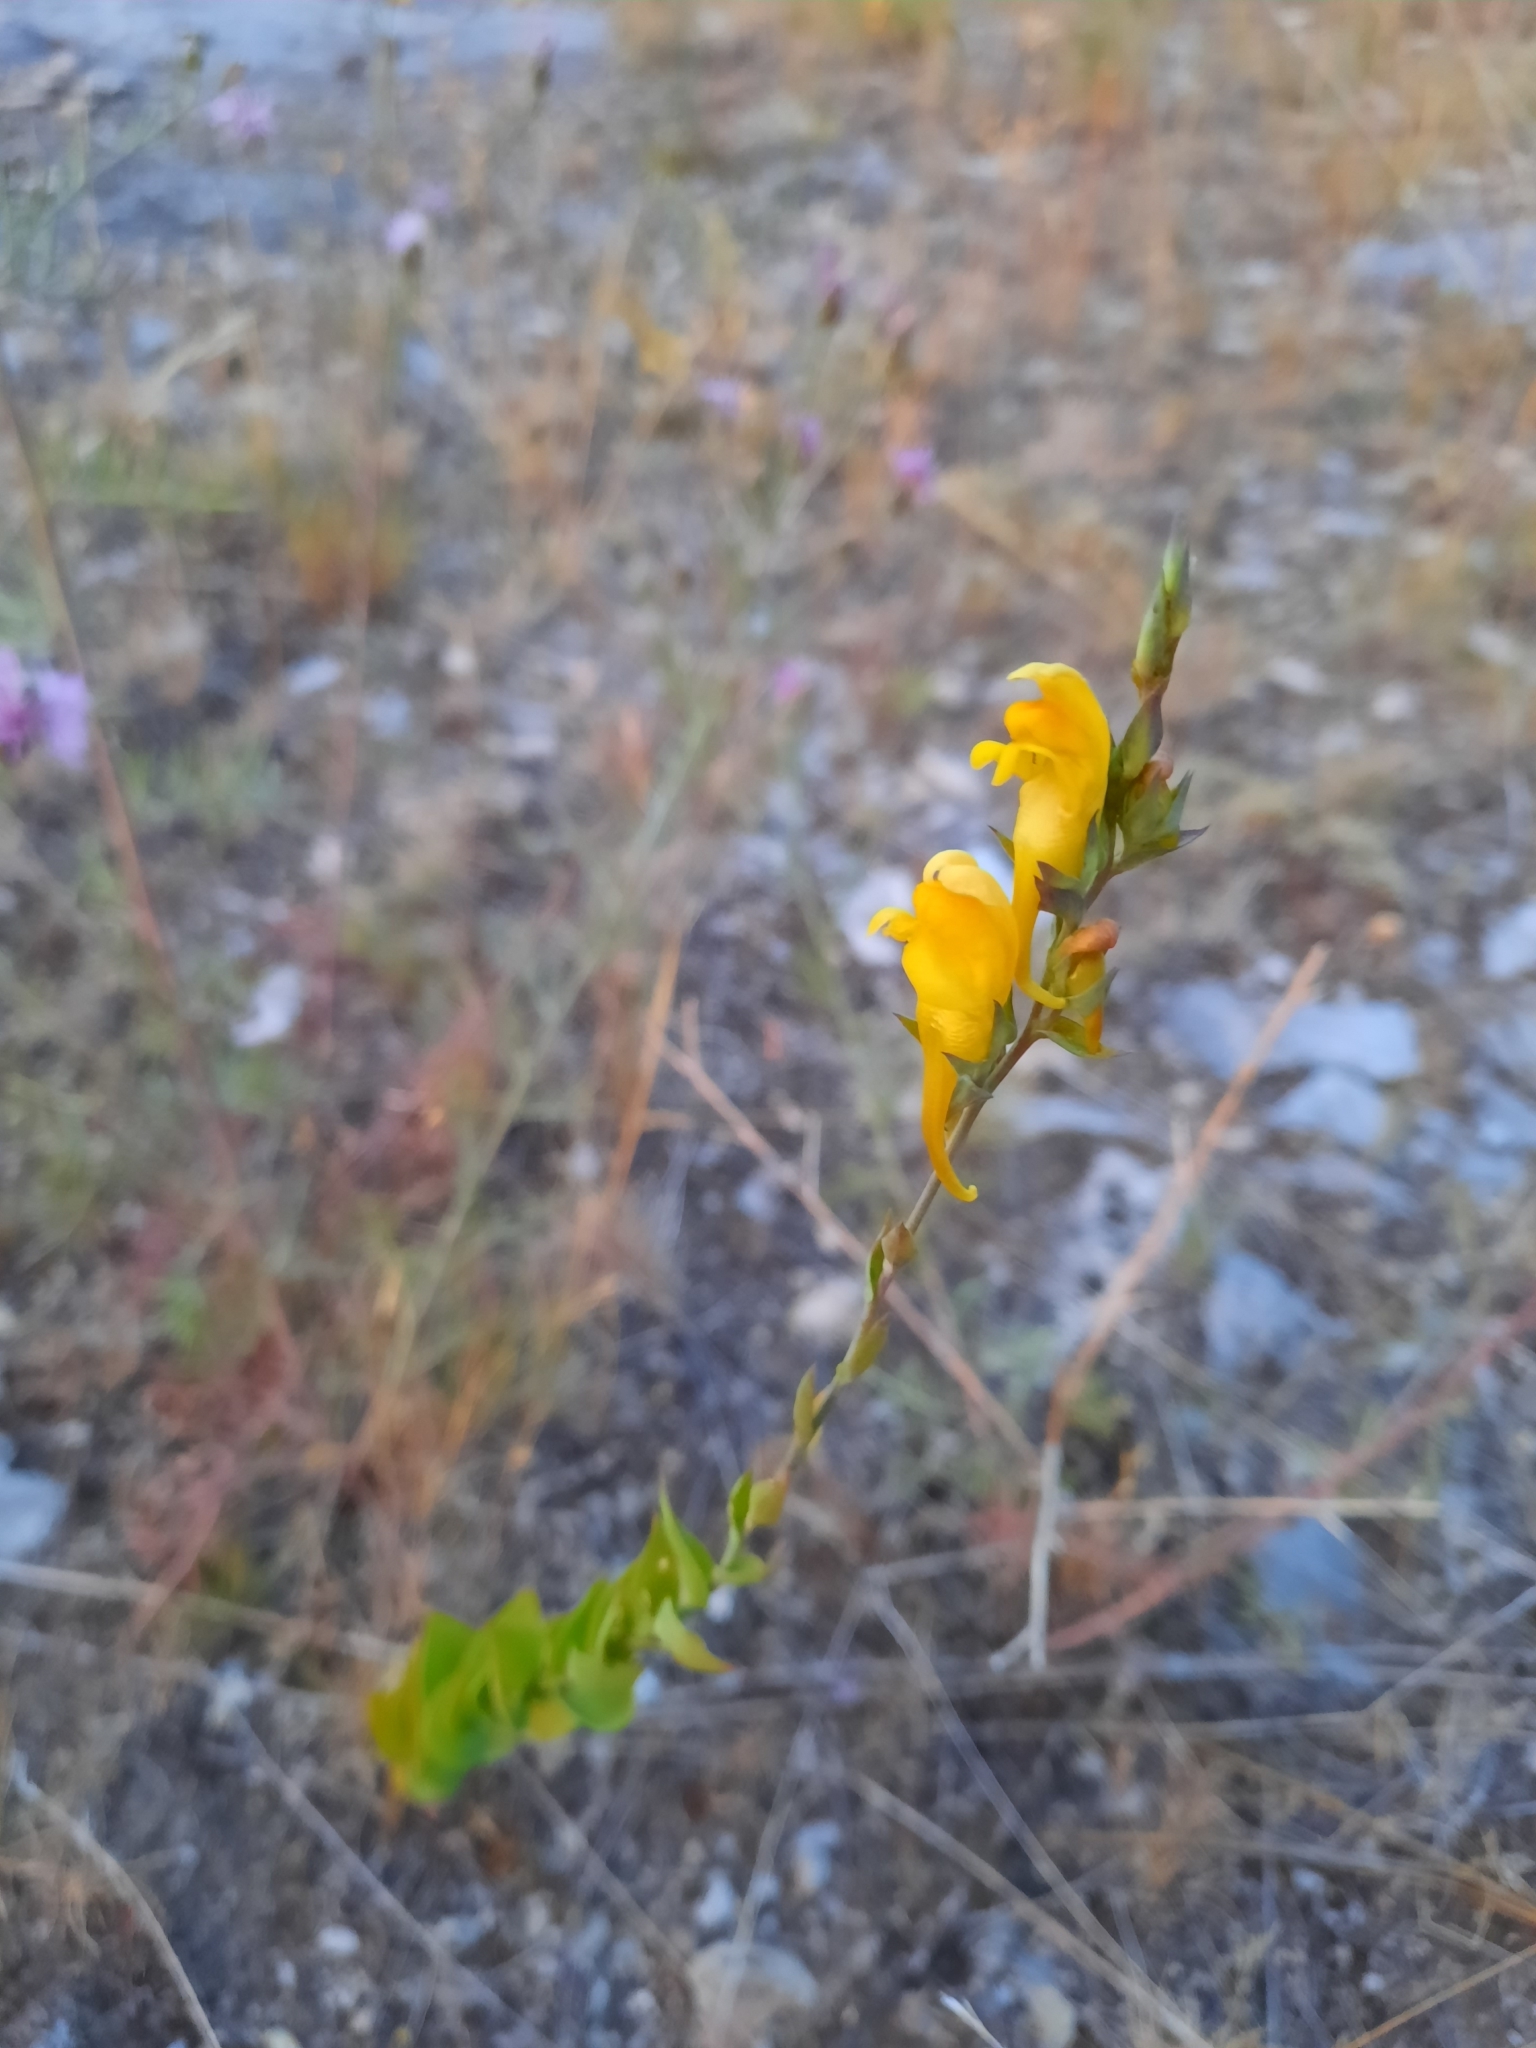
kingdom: Plantae
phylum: Tracheophyta
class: Magnoliopsida
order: Lamiales
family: Plantaginaceae
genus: Linaria
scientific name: Linaria dalmatica
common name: Dalmatian toadflax
